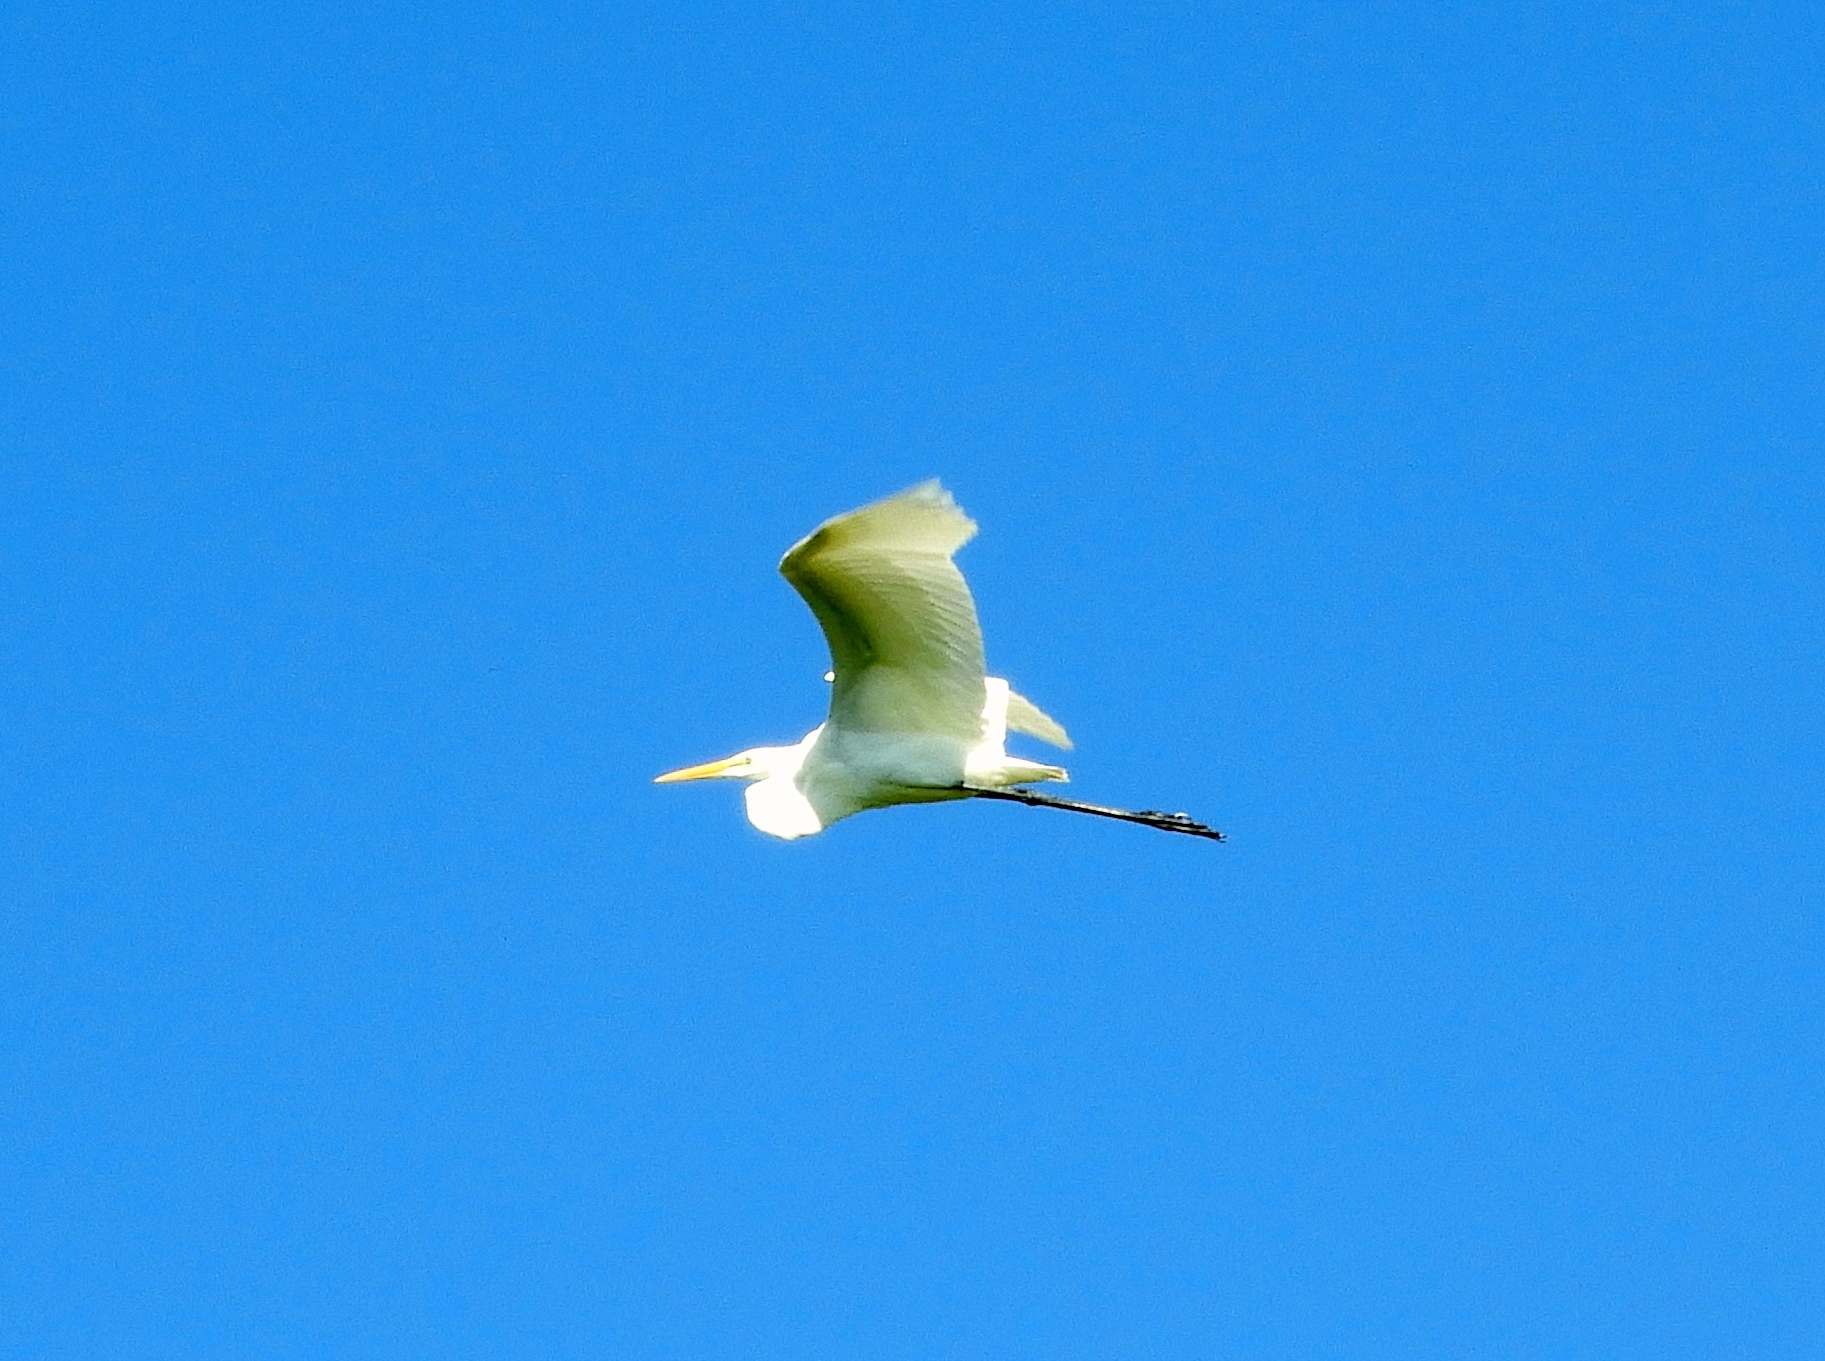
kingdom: Animalia
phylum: Chordata
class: Aves
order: Pelecaniformes
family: Ardeidae
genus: Ardea
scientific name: Ardea alba
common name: Great egret
